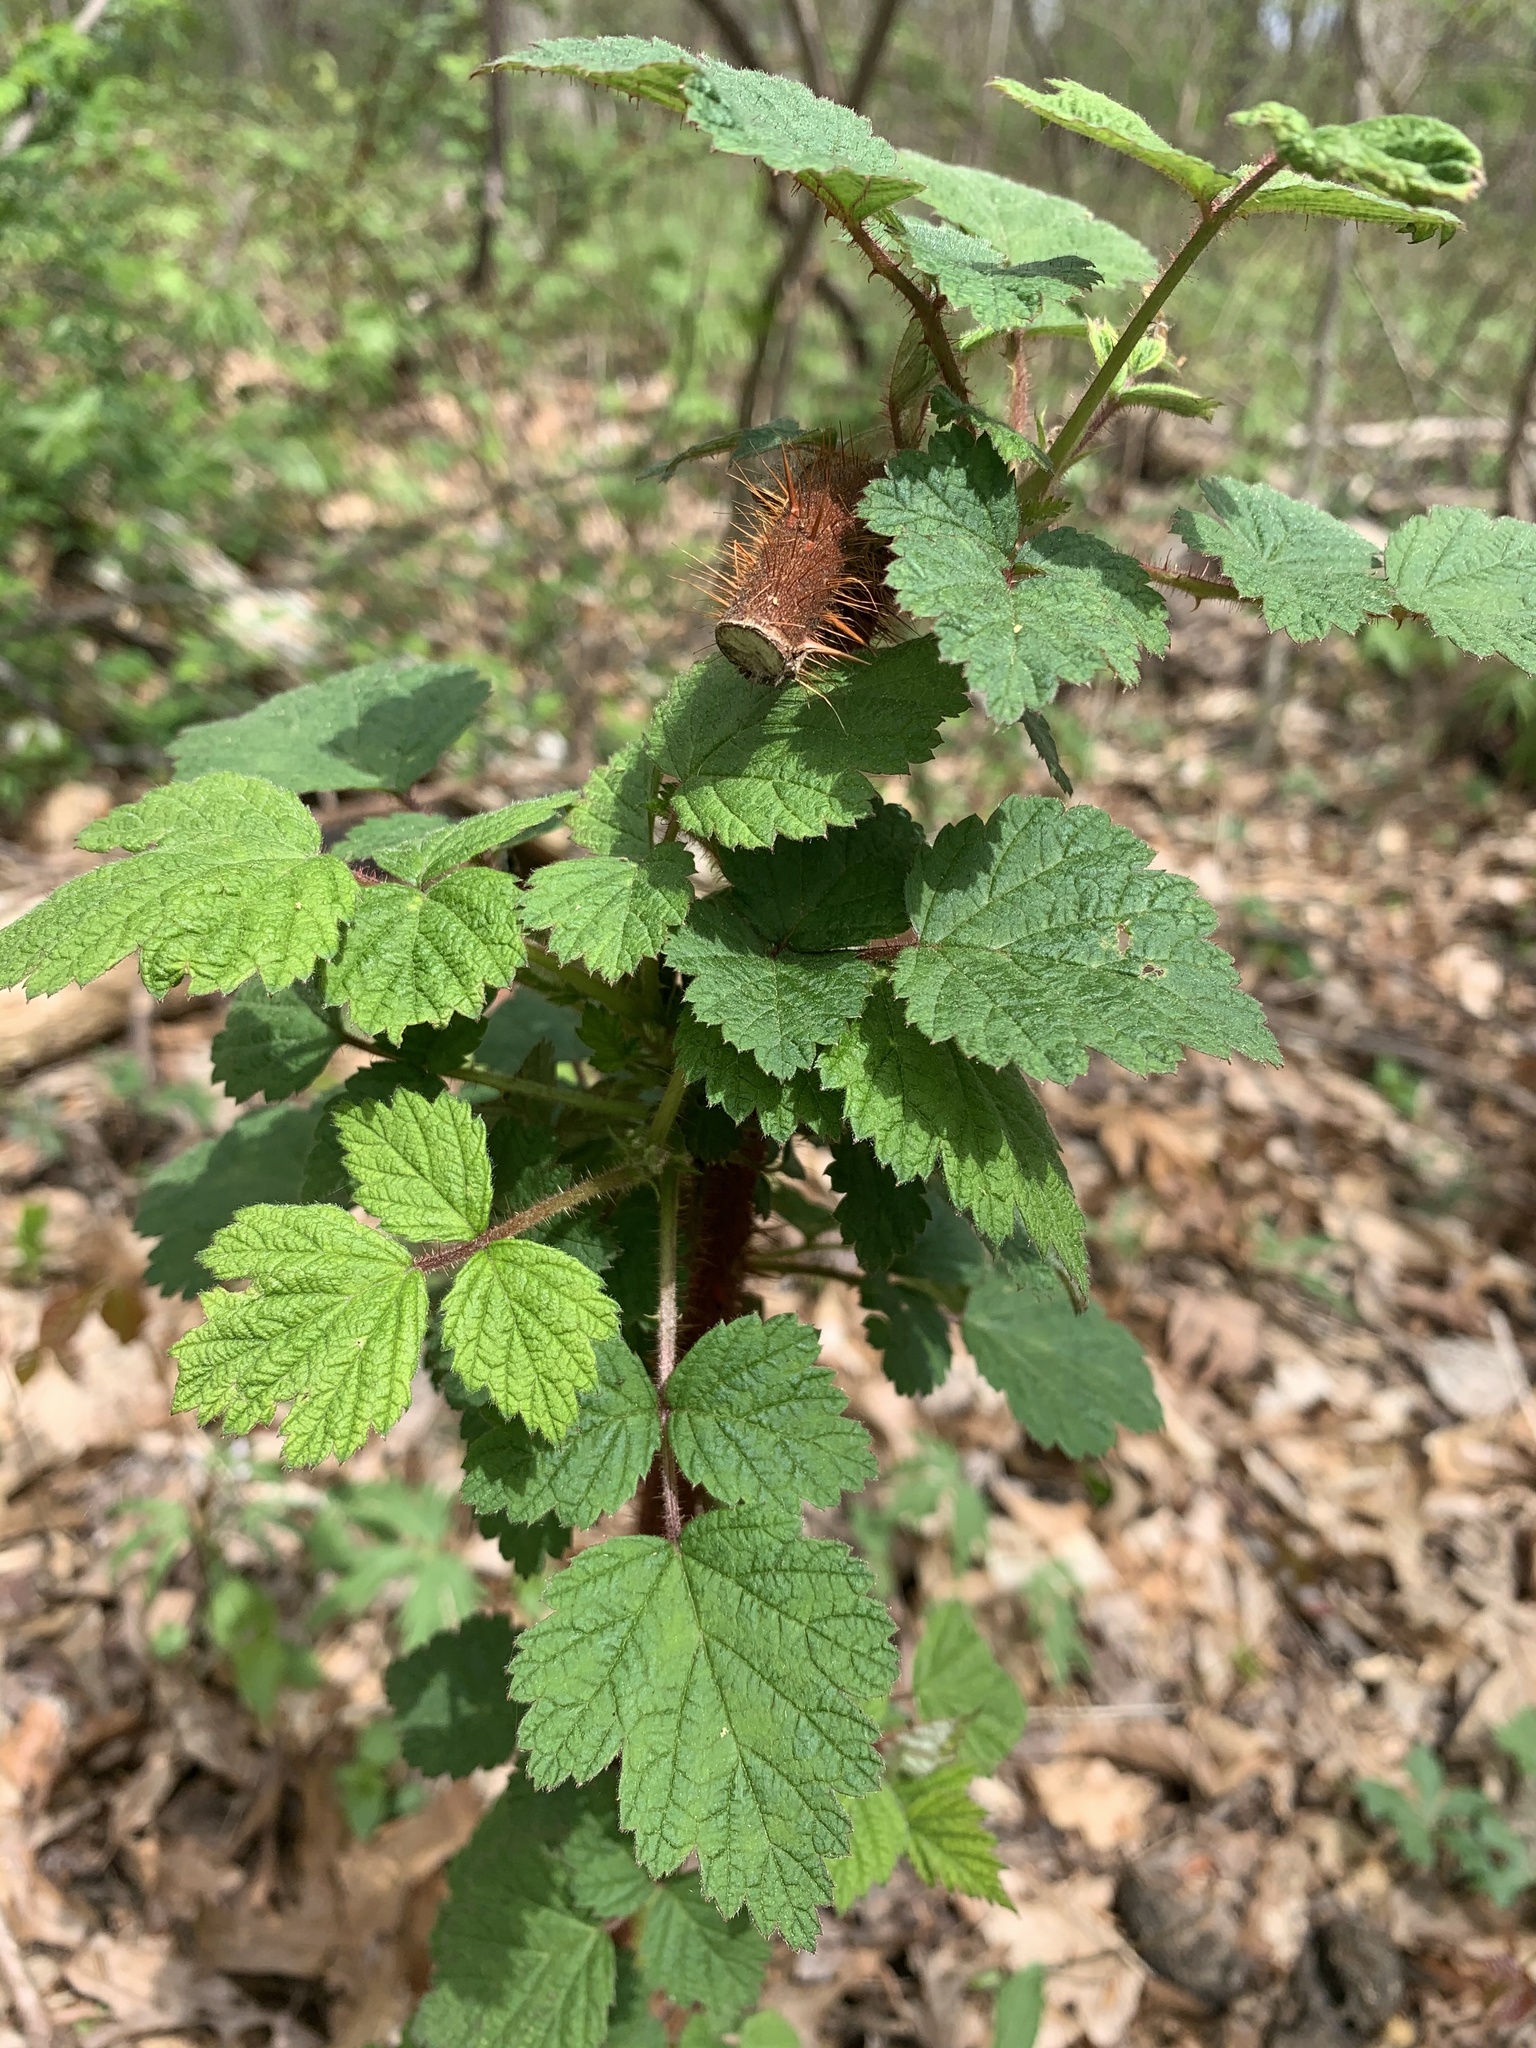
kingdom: Plantae
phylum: Tracheophyta
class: Magnoliopsida
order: Rosales
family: Rosaceae
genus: Rubus
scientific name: Rubus phoenicolasius
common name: Japanese wineberry
